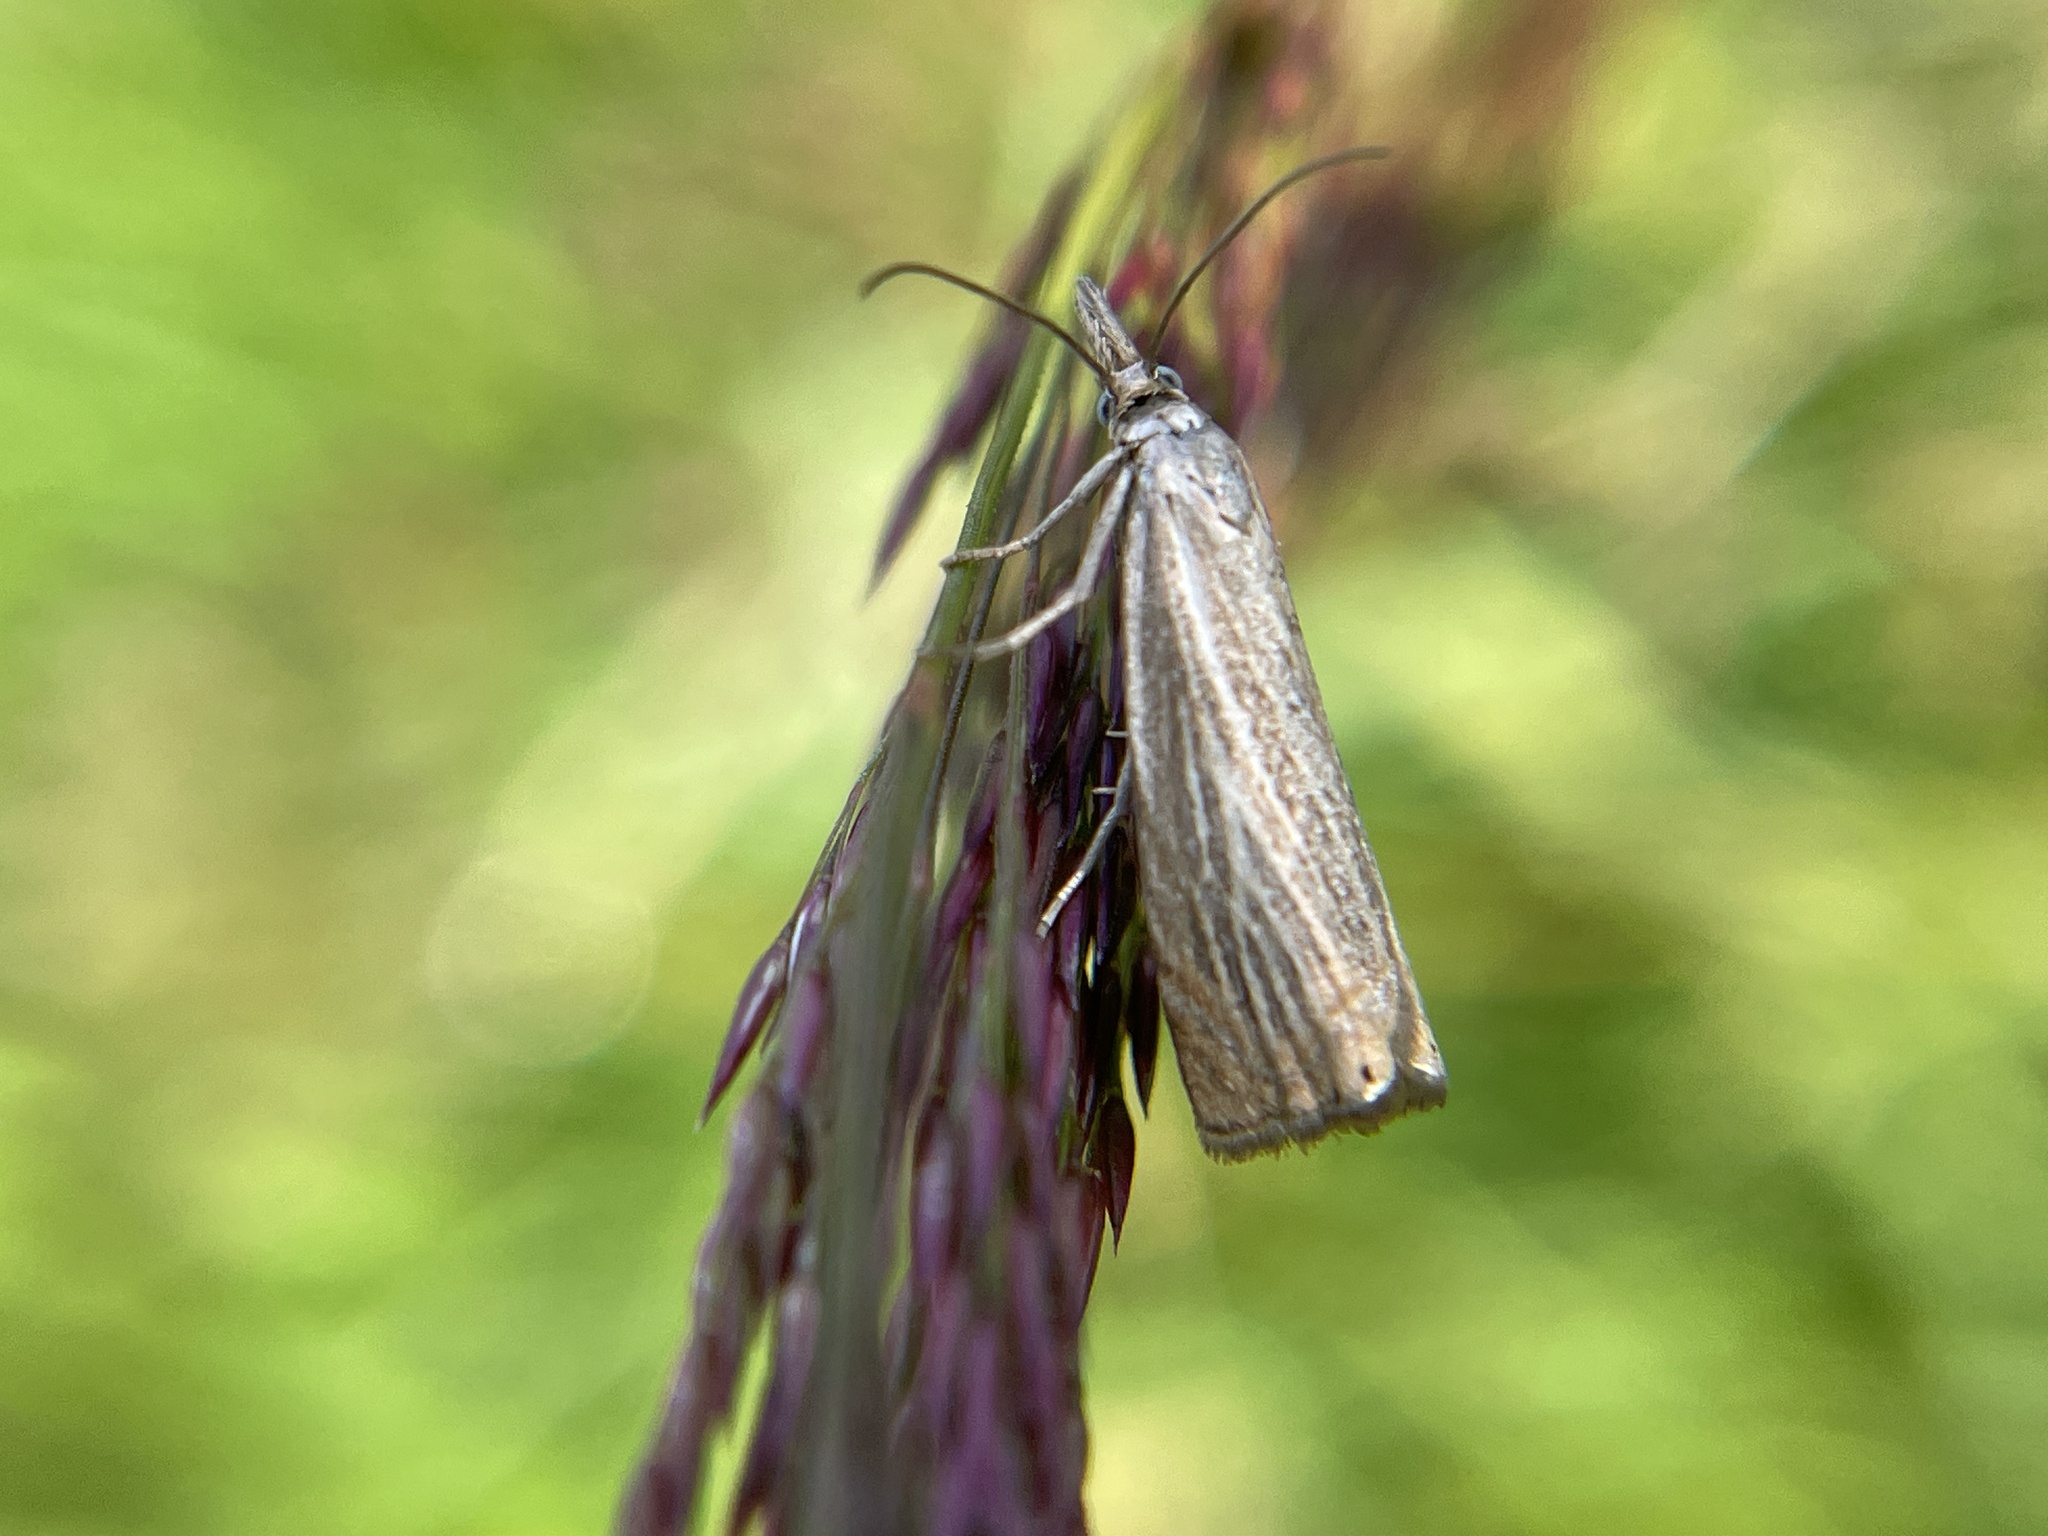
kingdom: Animalia
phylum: Arthropoda
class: Insecta
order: Lepidoptera
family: Crambidae
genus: Chrysoteuchia
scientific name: Chrysoteuchia culmella
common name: Garden grass-veneer
